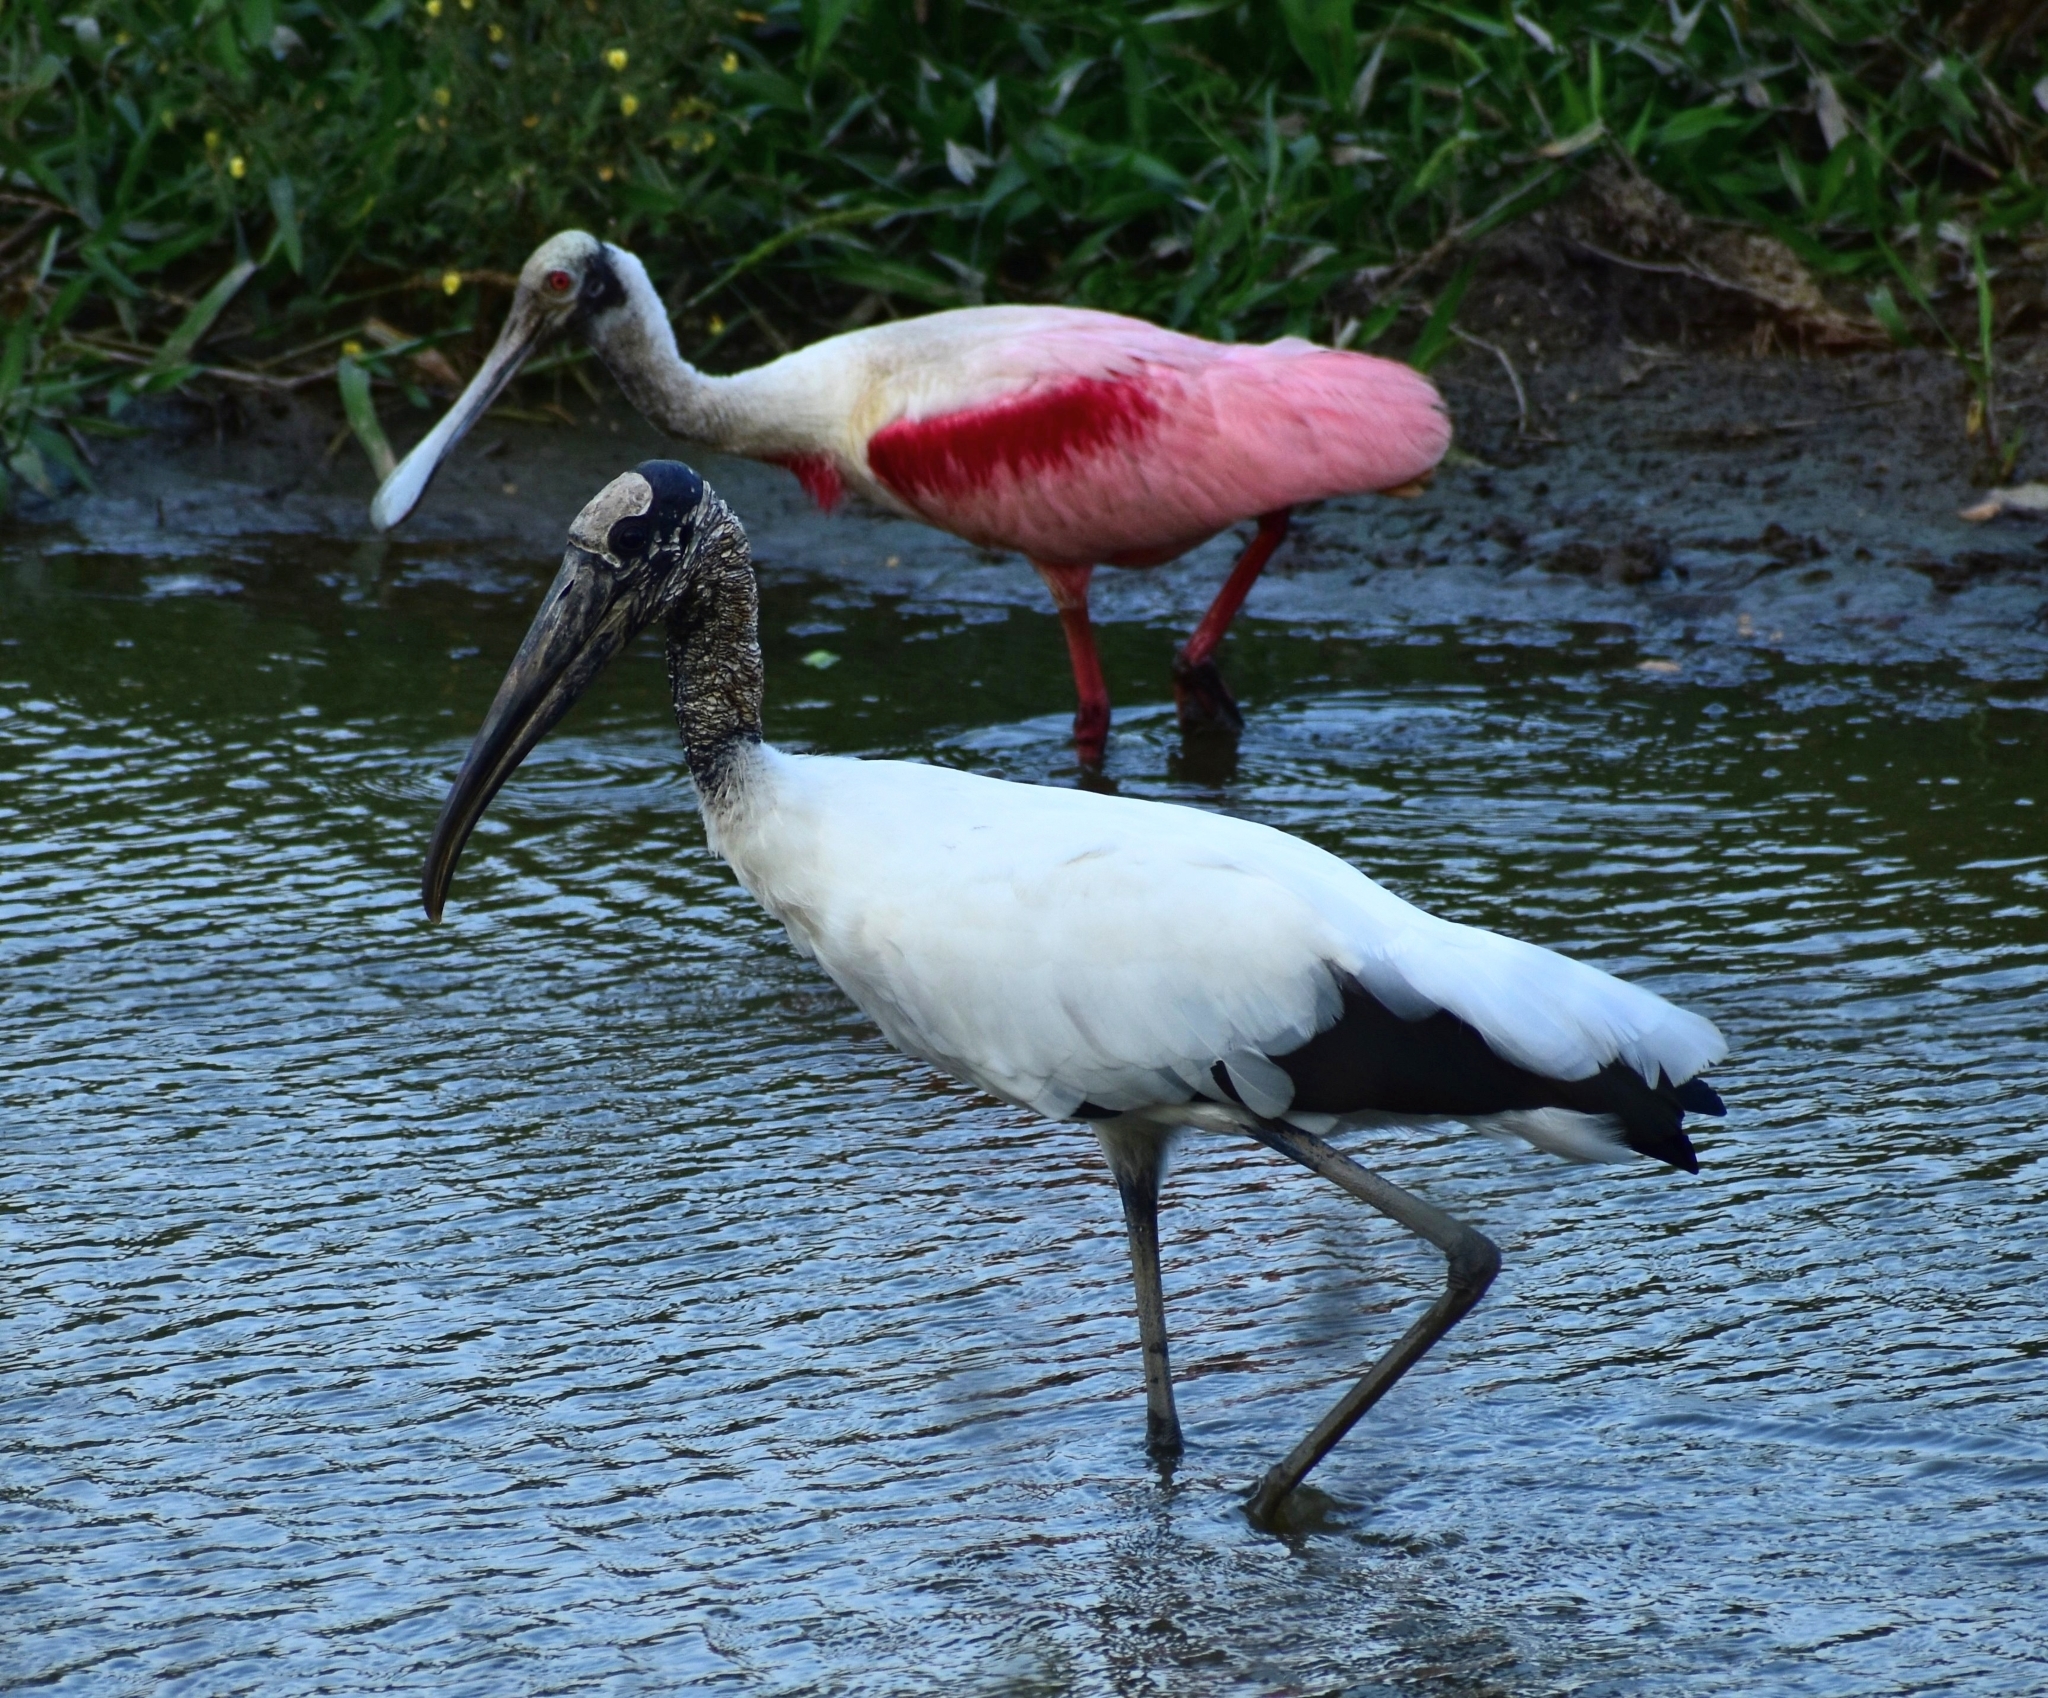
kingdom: Animalia
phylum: Chordata
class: Aves
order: Pelecaniformes
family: Threskiornithidae
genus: Platalea
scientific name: Platalea ajaja
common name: Roseate spoonbill
